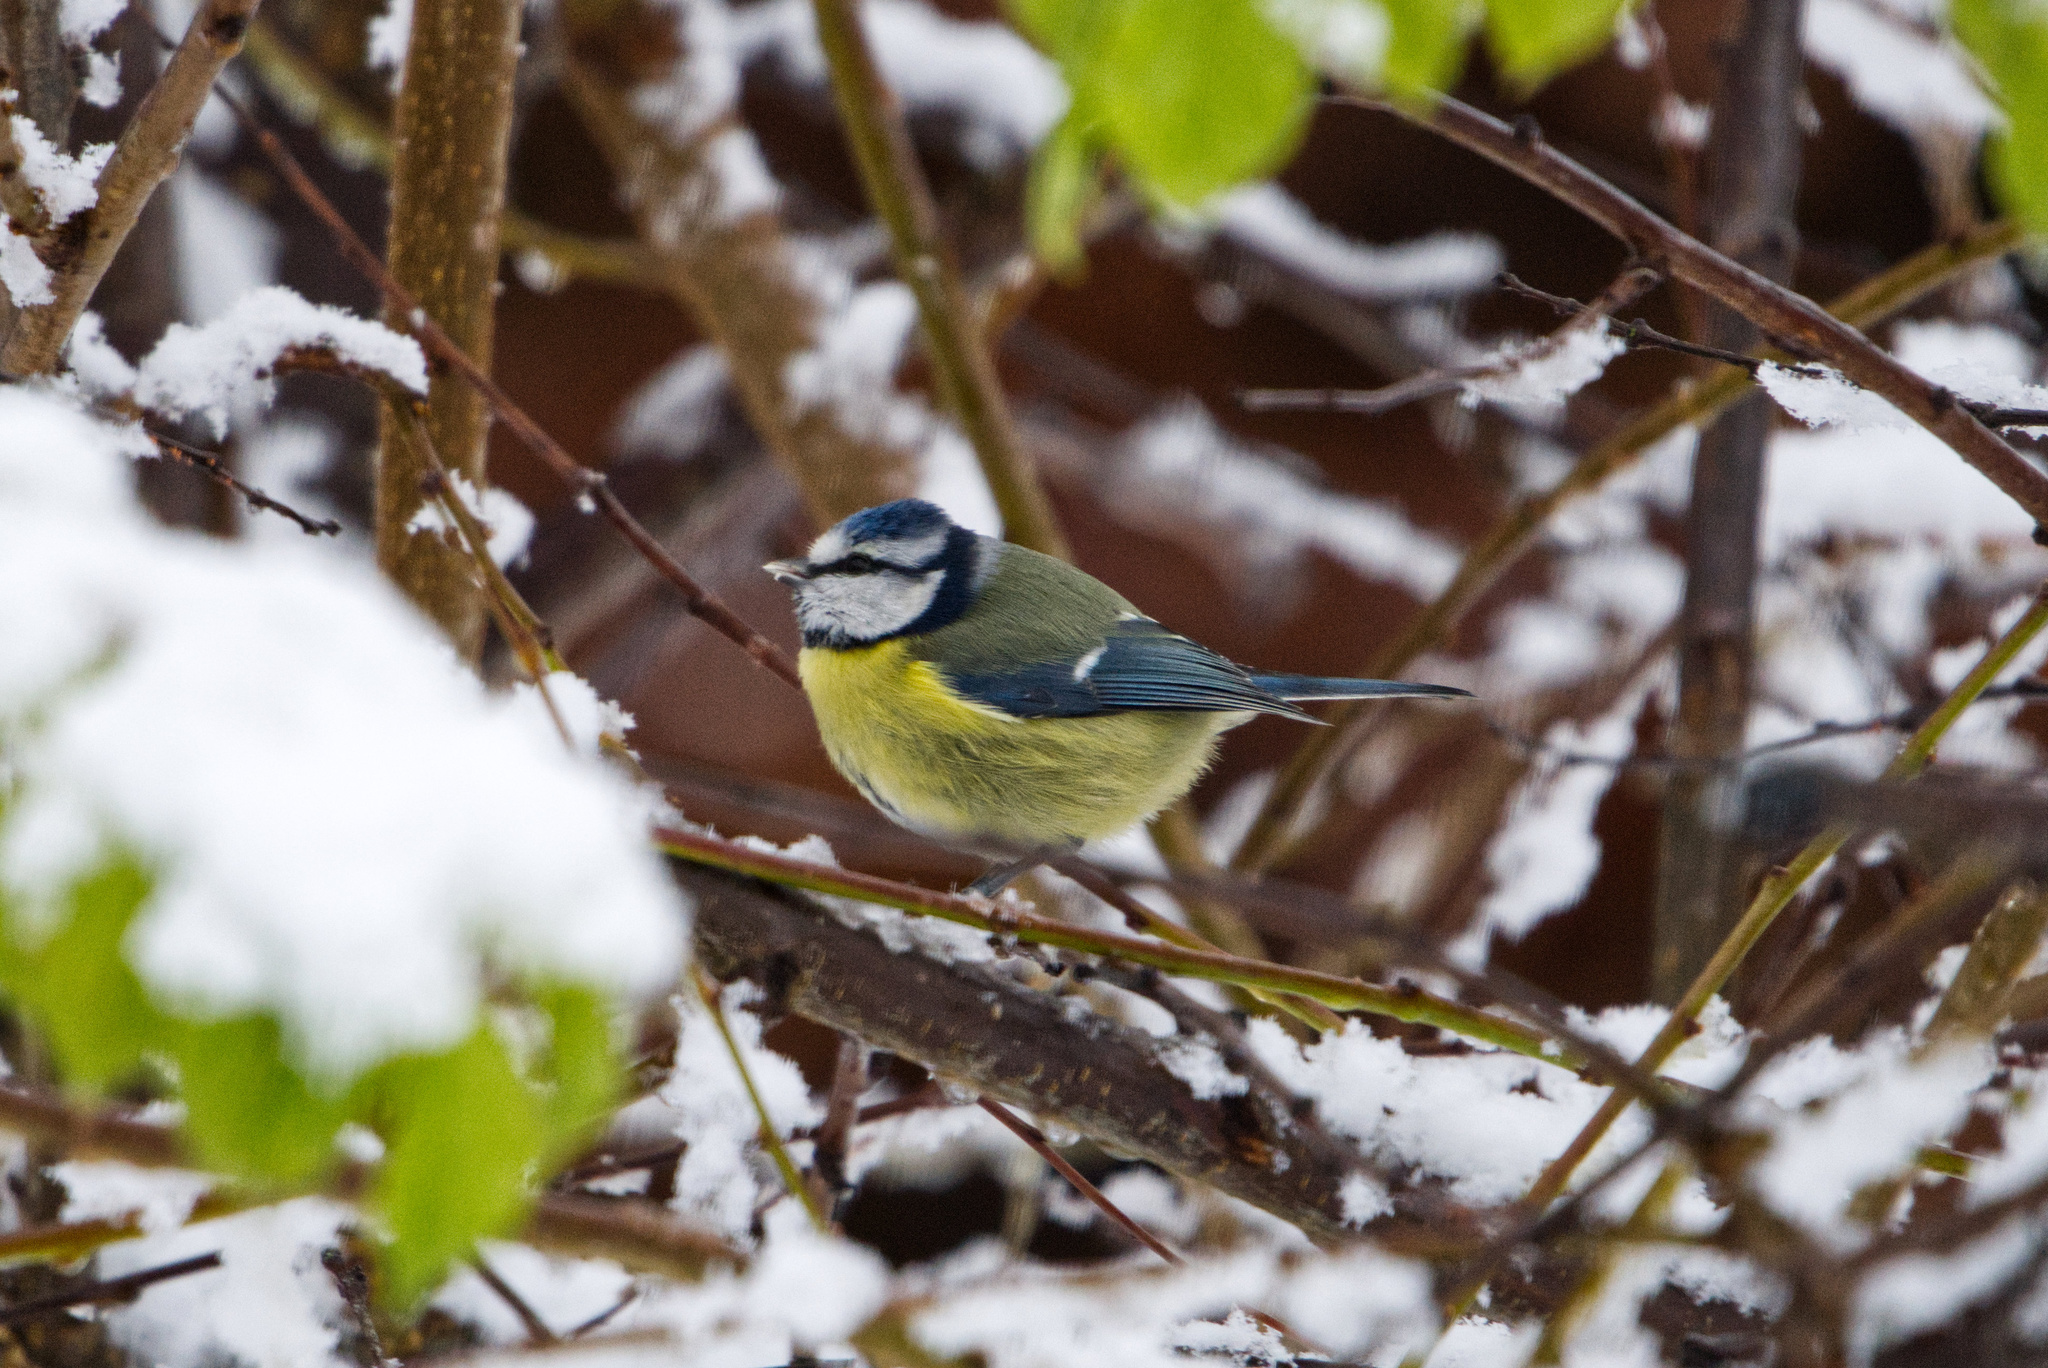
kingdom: Animalia
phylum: Chordata
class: Aves
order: Passeriformes
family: Paridae
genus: Cyanistes
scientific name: Cyanistes caeruleus
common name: Eurasian blue tit
